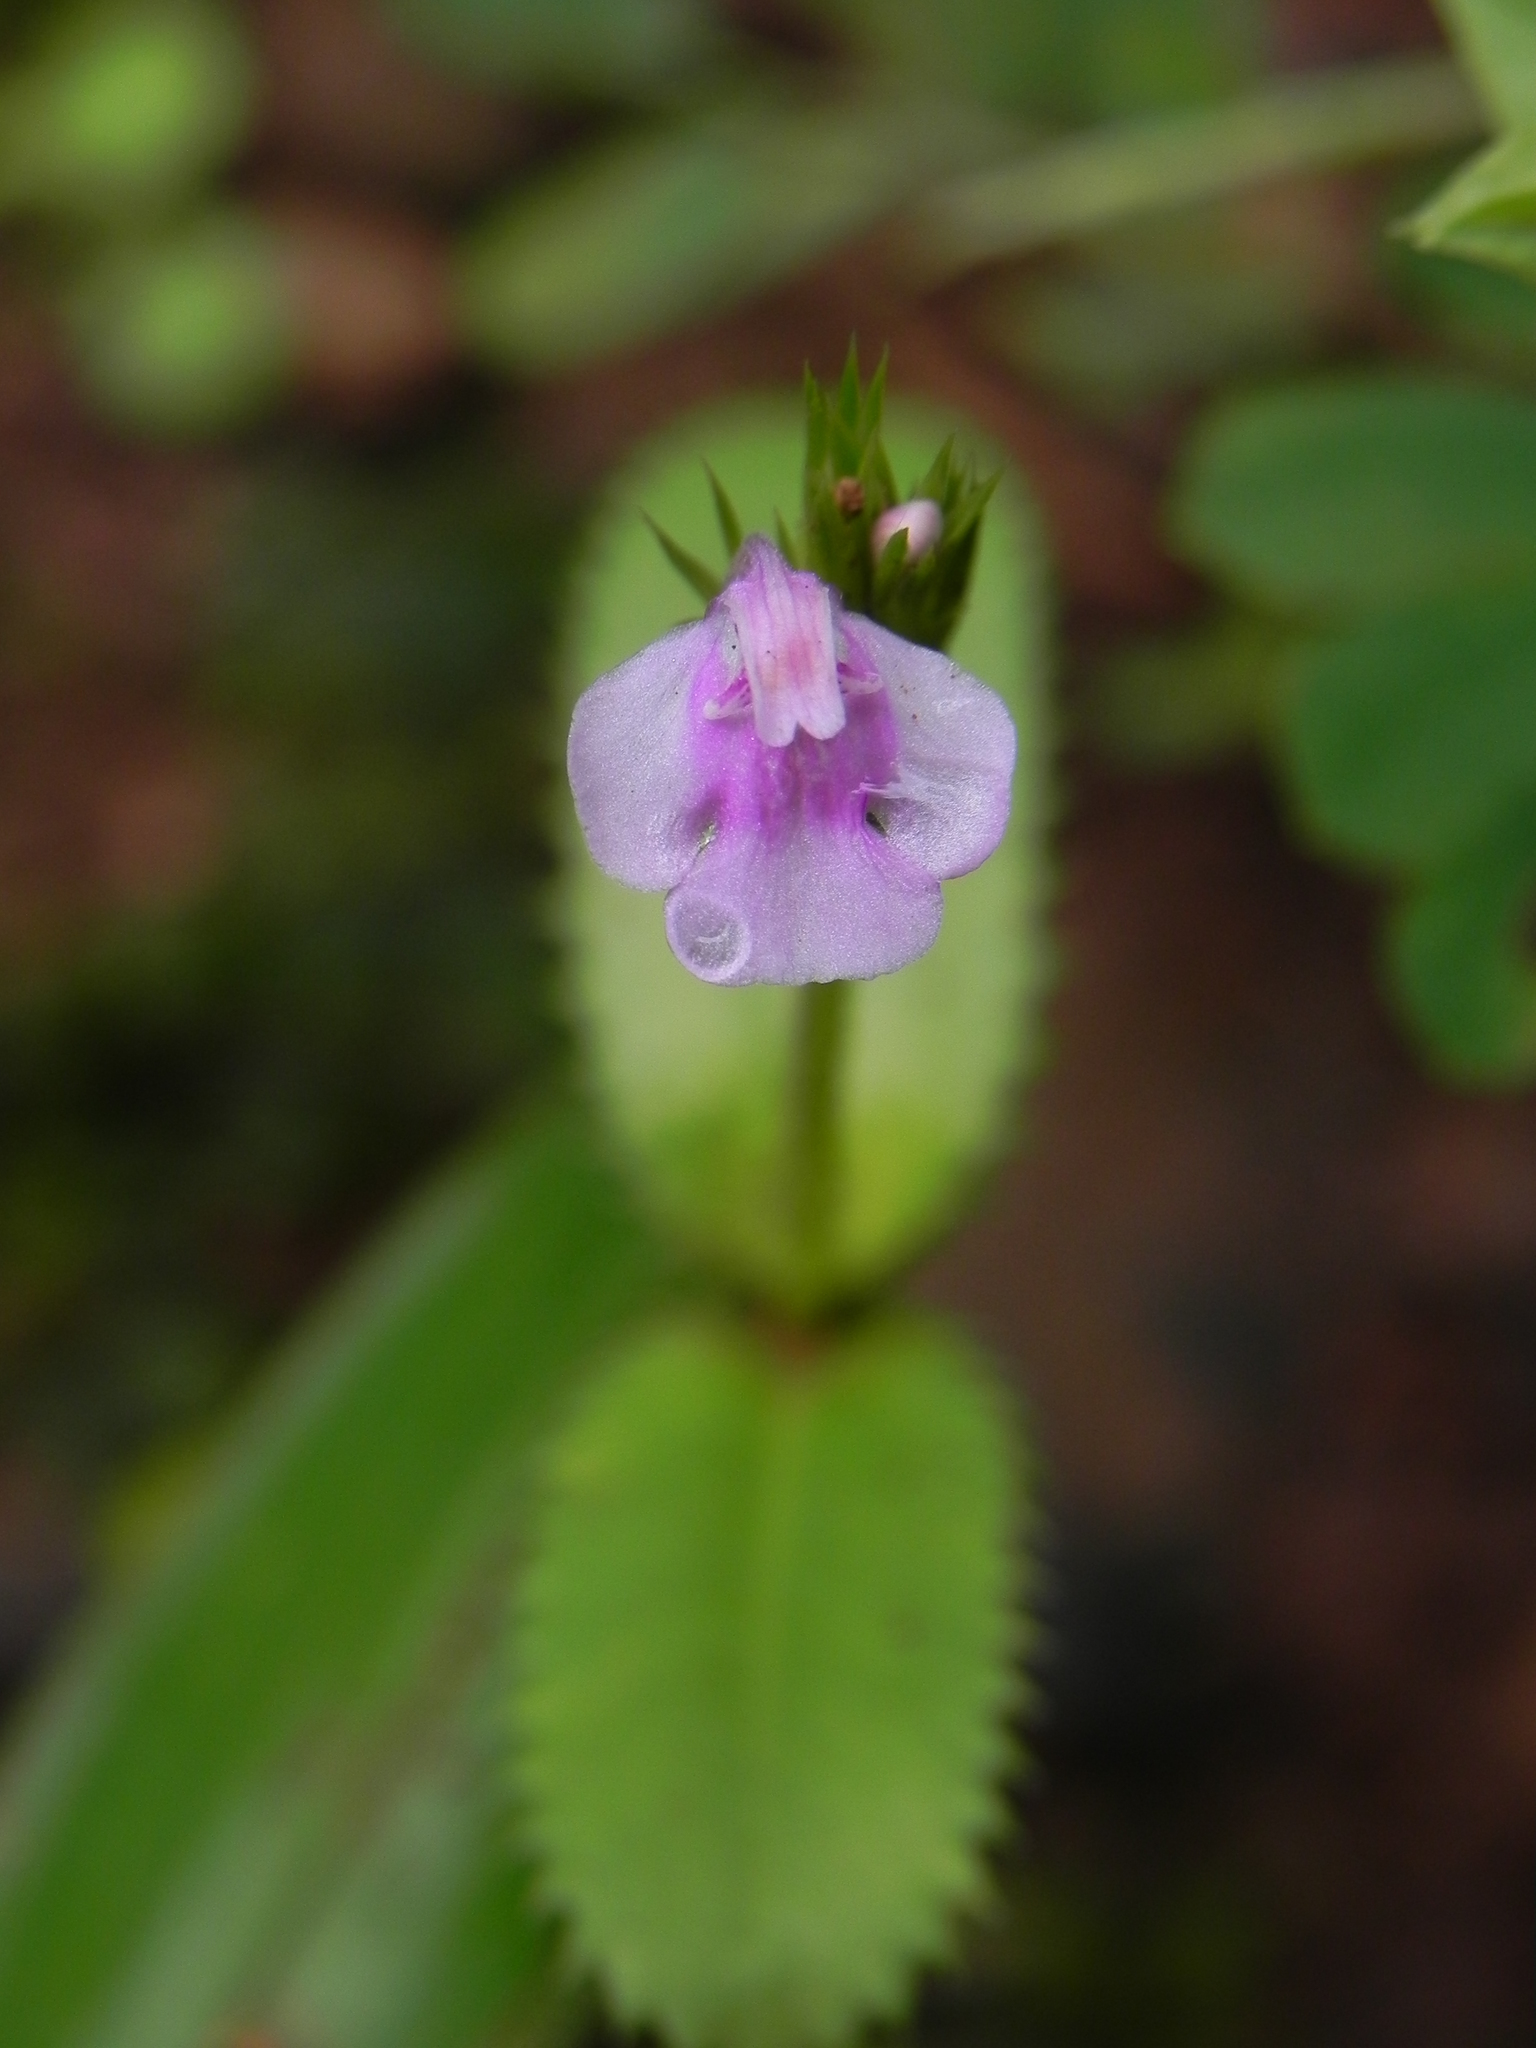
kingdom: Plantae
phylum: Tracheophyta
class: Magnoliopsida
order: Lamiales
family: Linderniaceae
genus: Bonnaya
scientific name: Bonnaya ciliata
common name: Hairy slitwort
